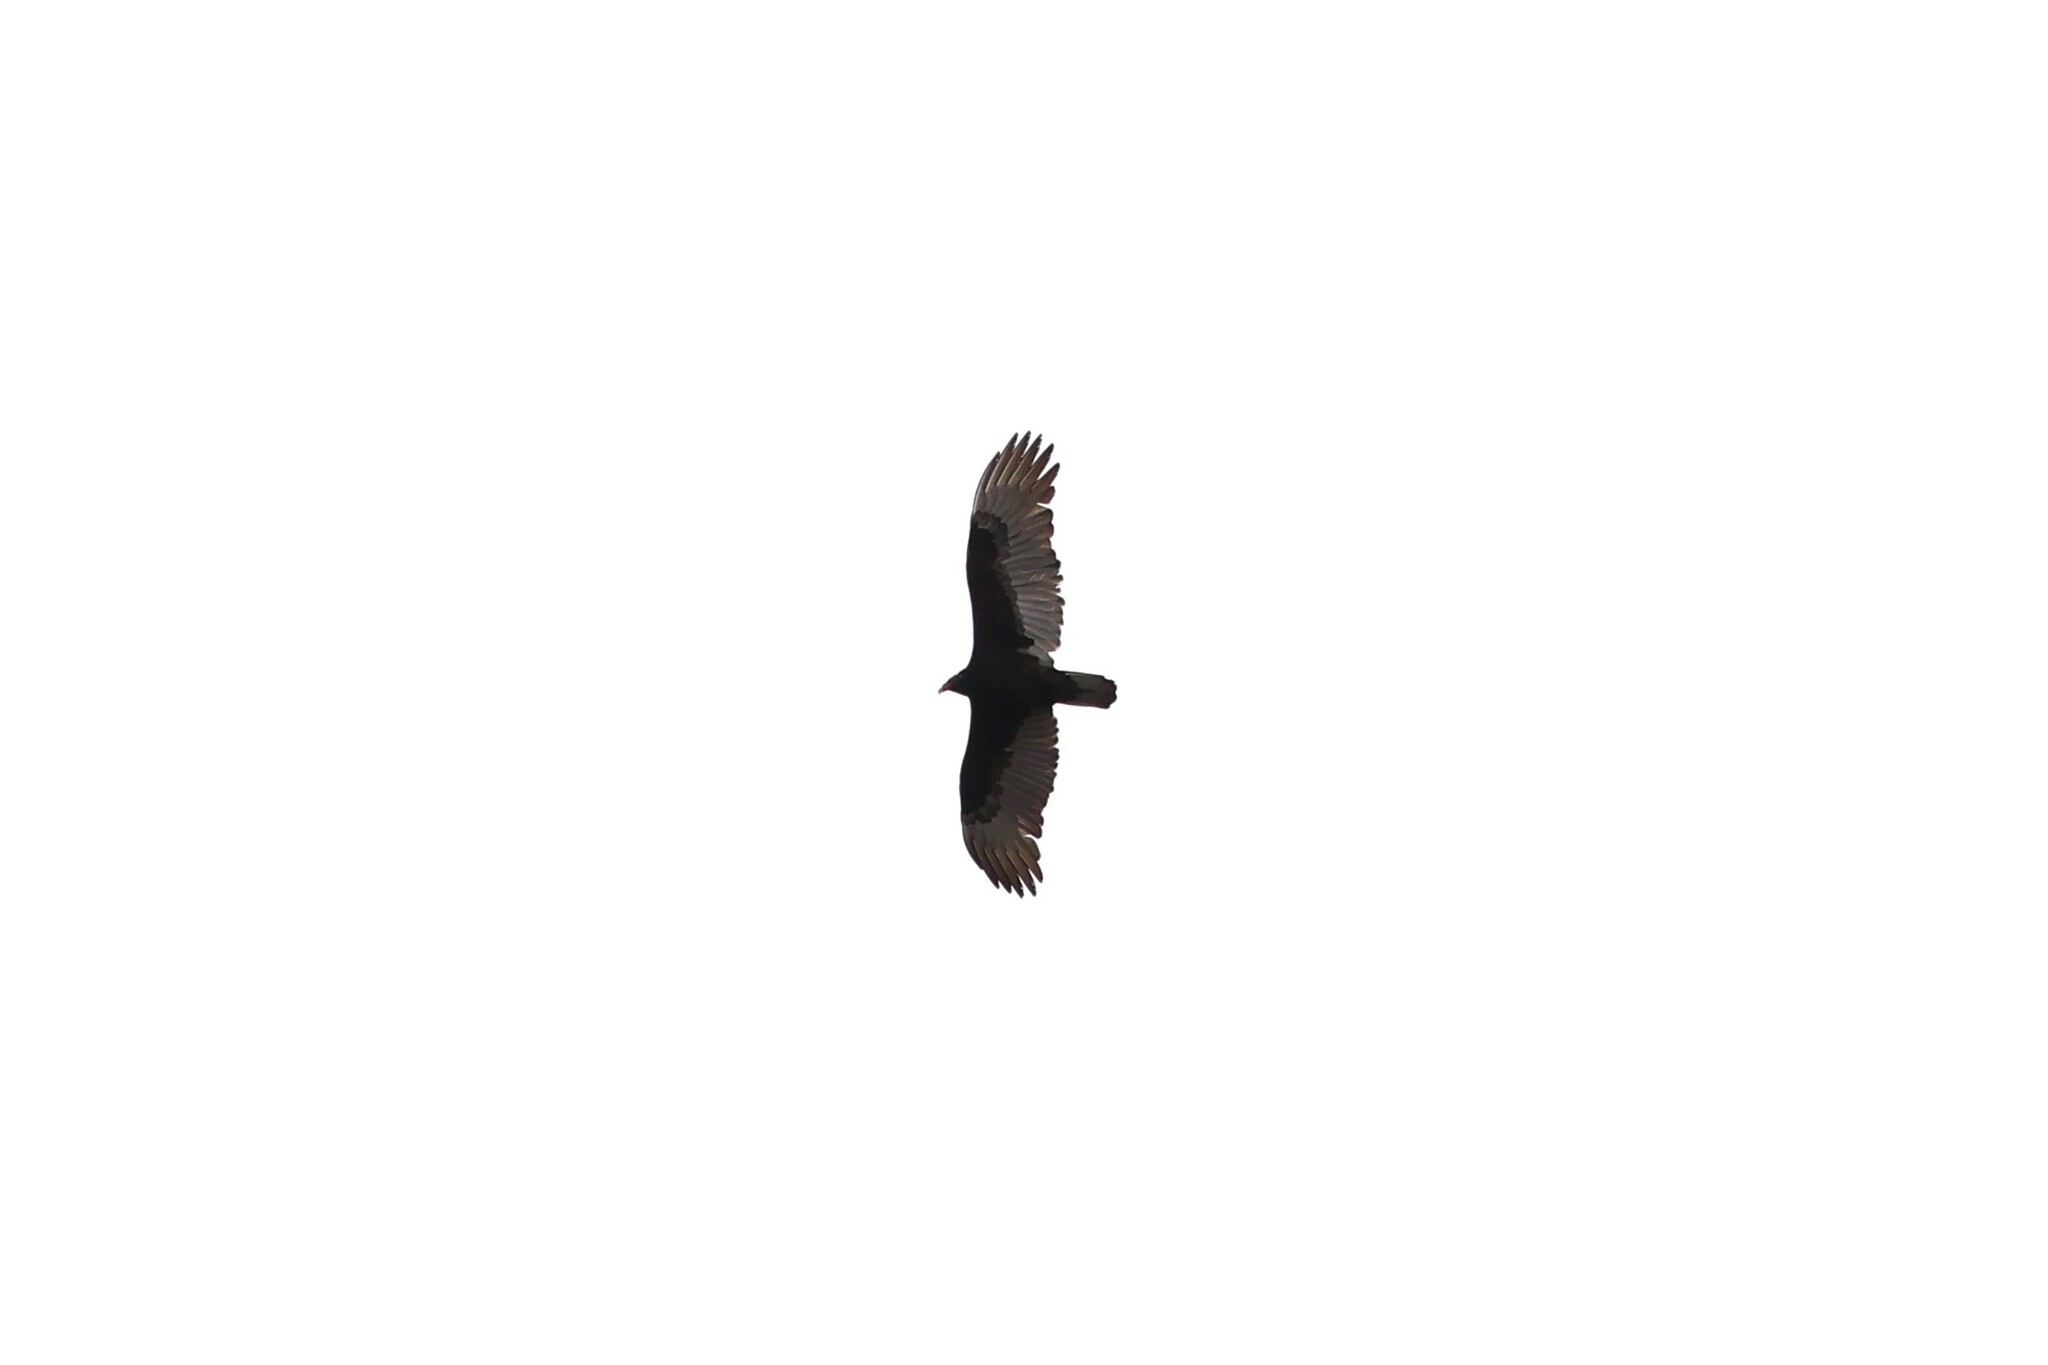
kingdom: Animalia
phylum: Chordata
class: Aves
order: Accipitriformes
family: Cathartidae
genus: Cathartes
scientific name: Cathartes aura
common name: Turkey vulture
